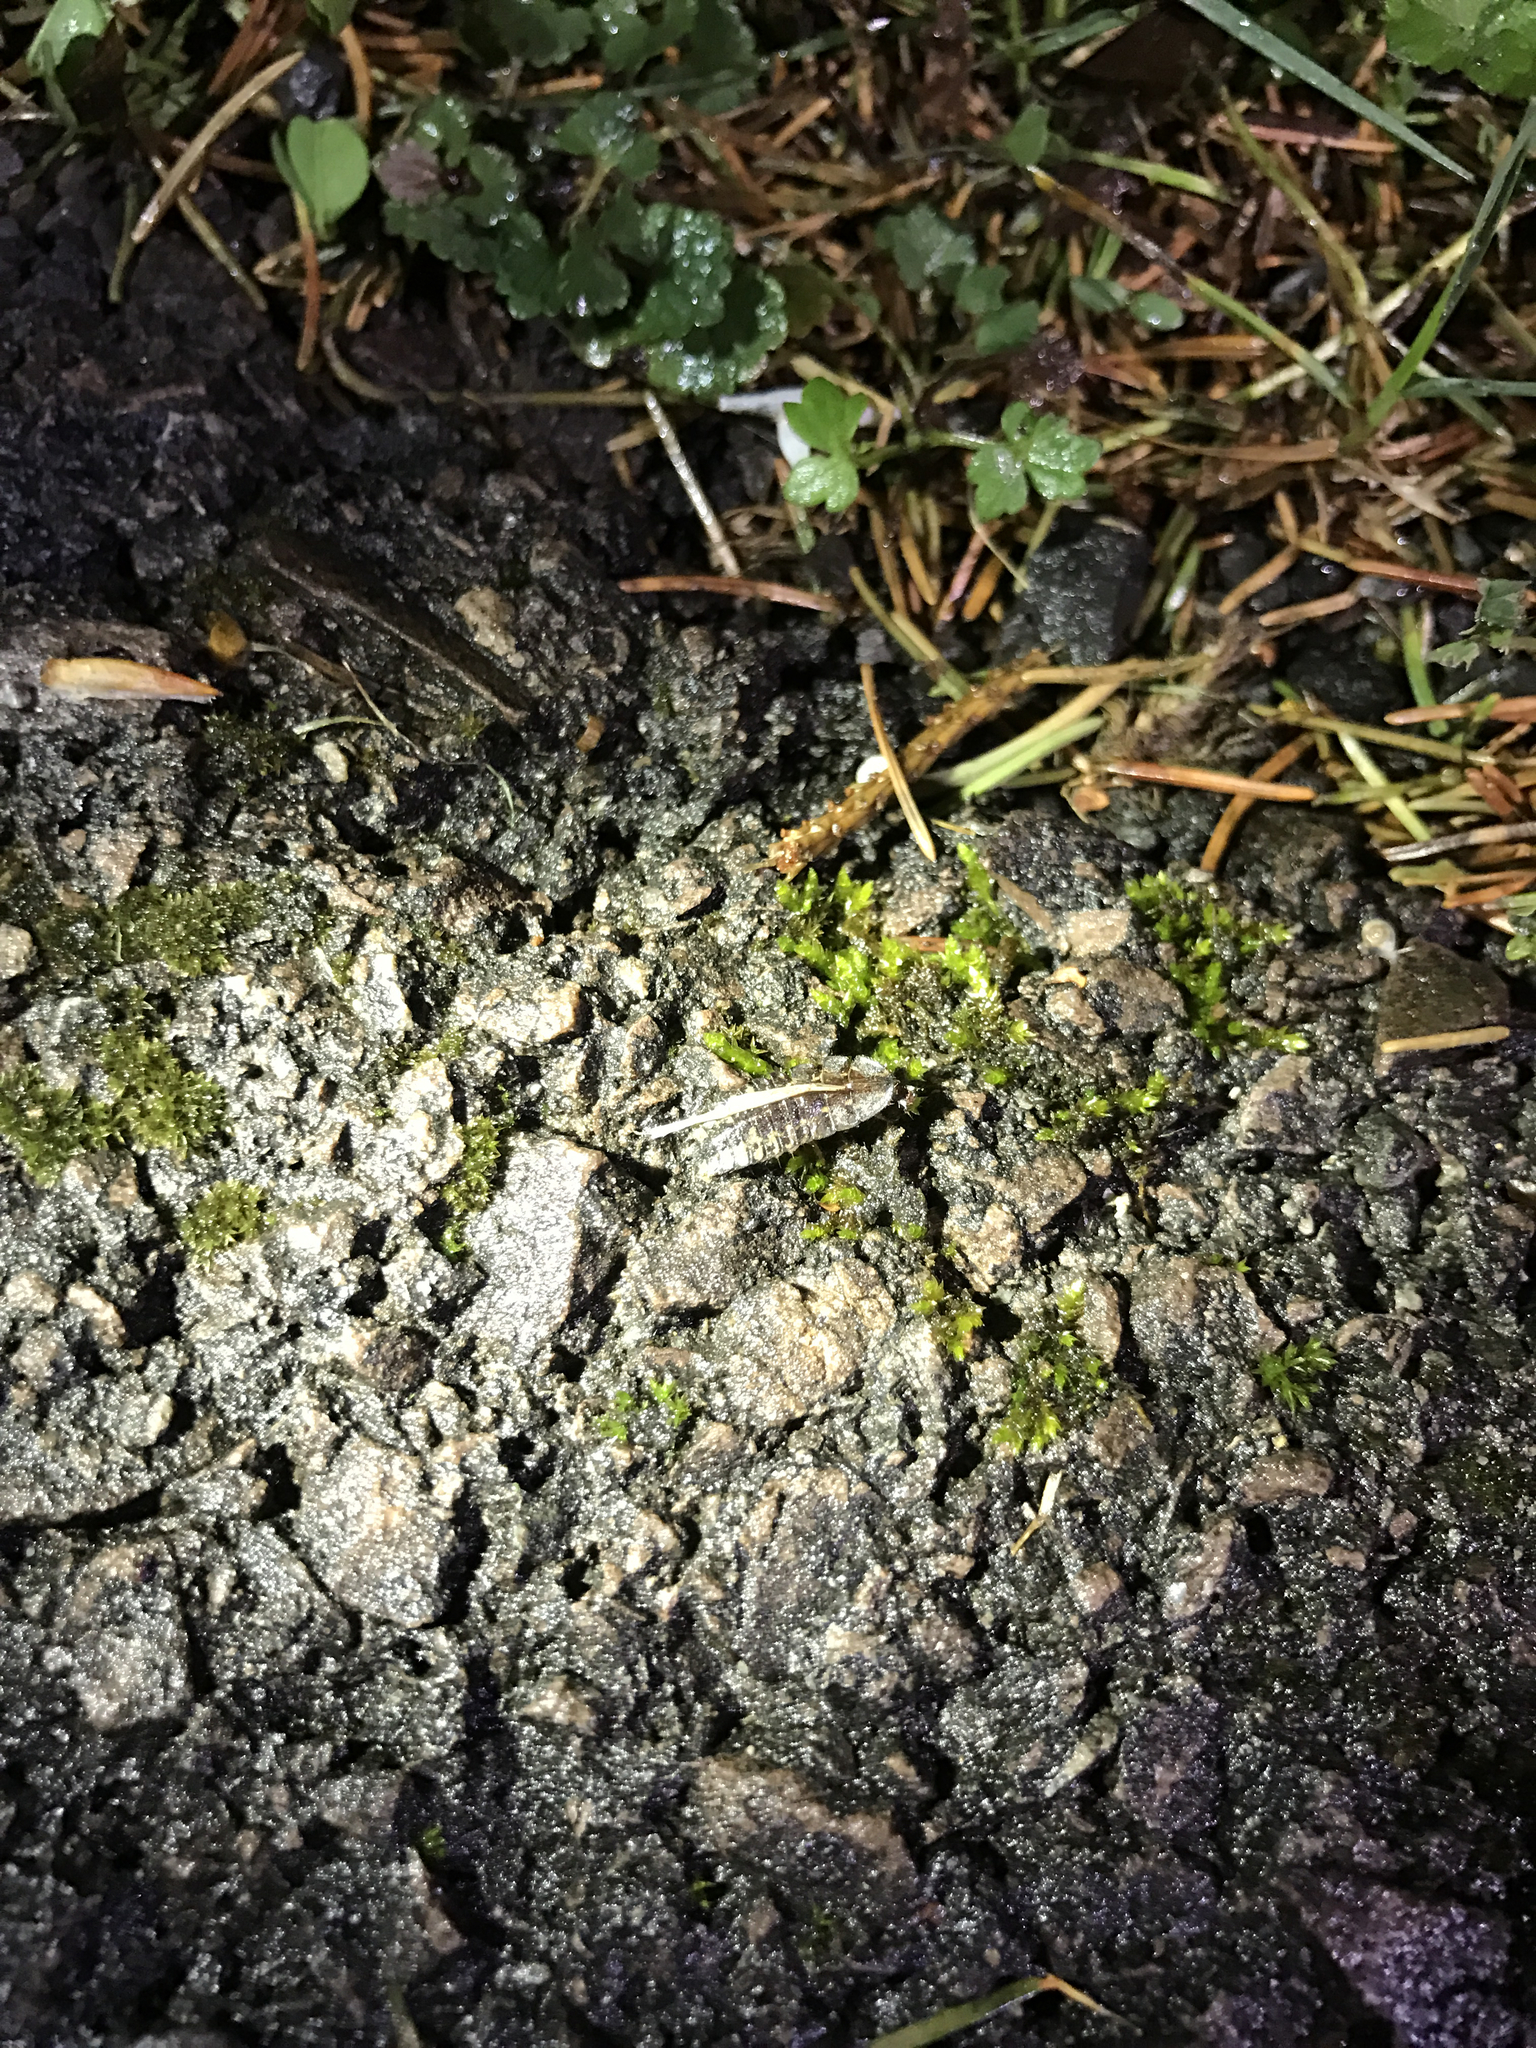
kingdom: Animalia
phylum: Arthropoda
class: Insecta
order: Coleoptera
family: Lampyridae
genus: Photuris
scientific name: Photuris
